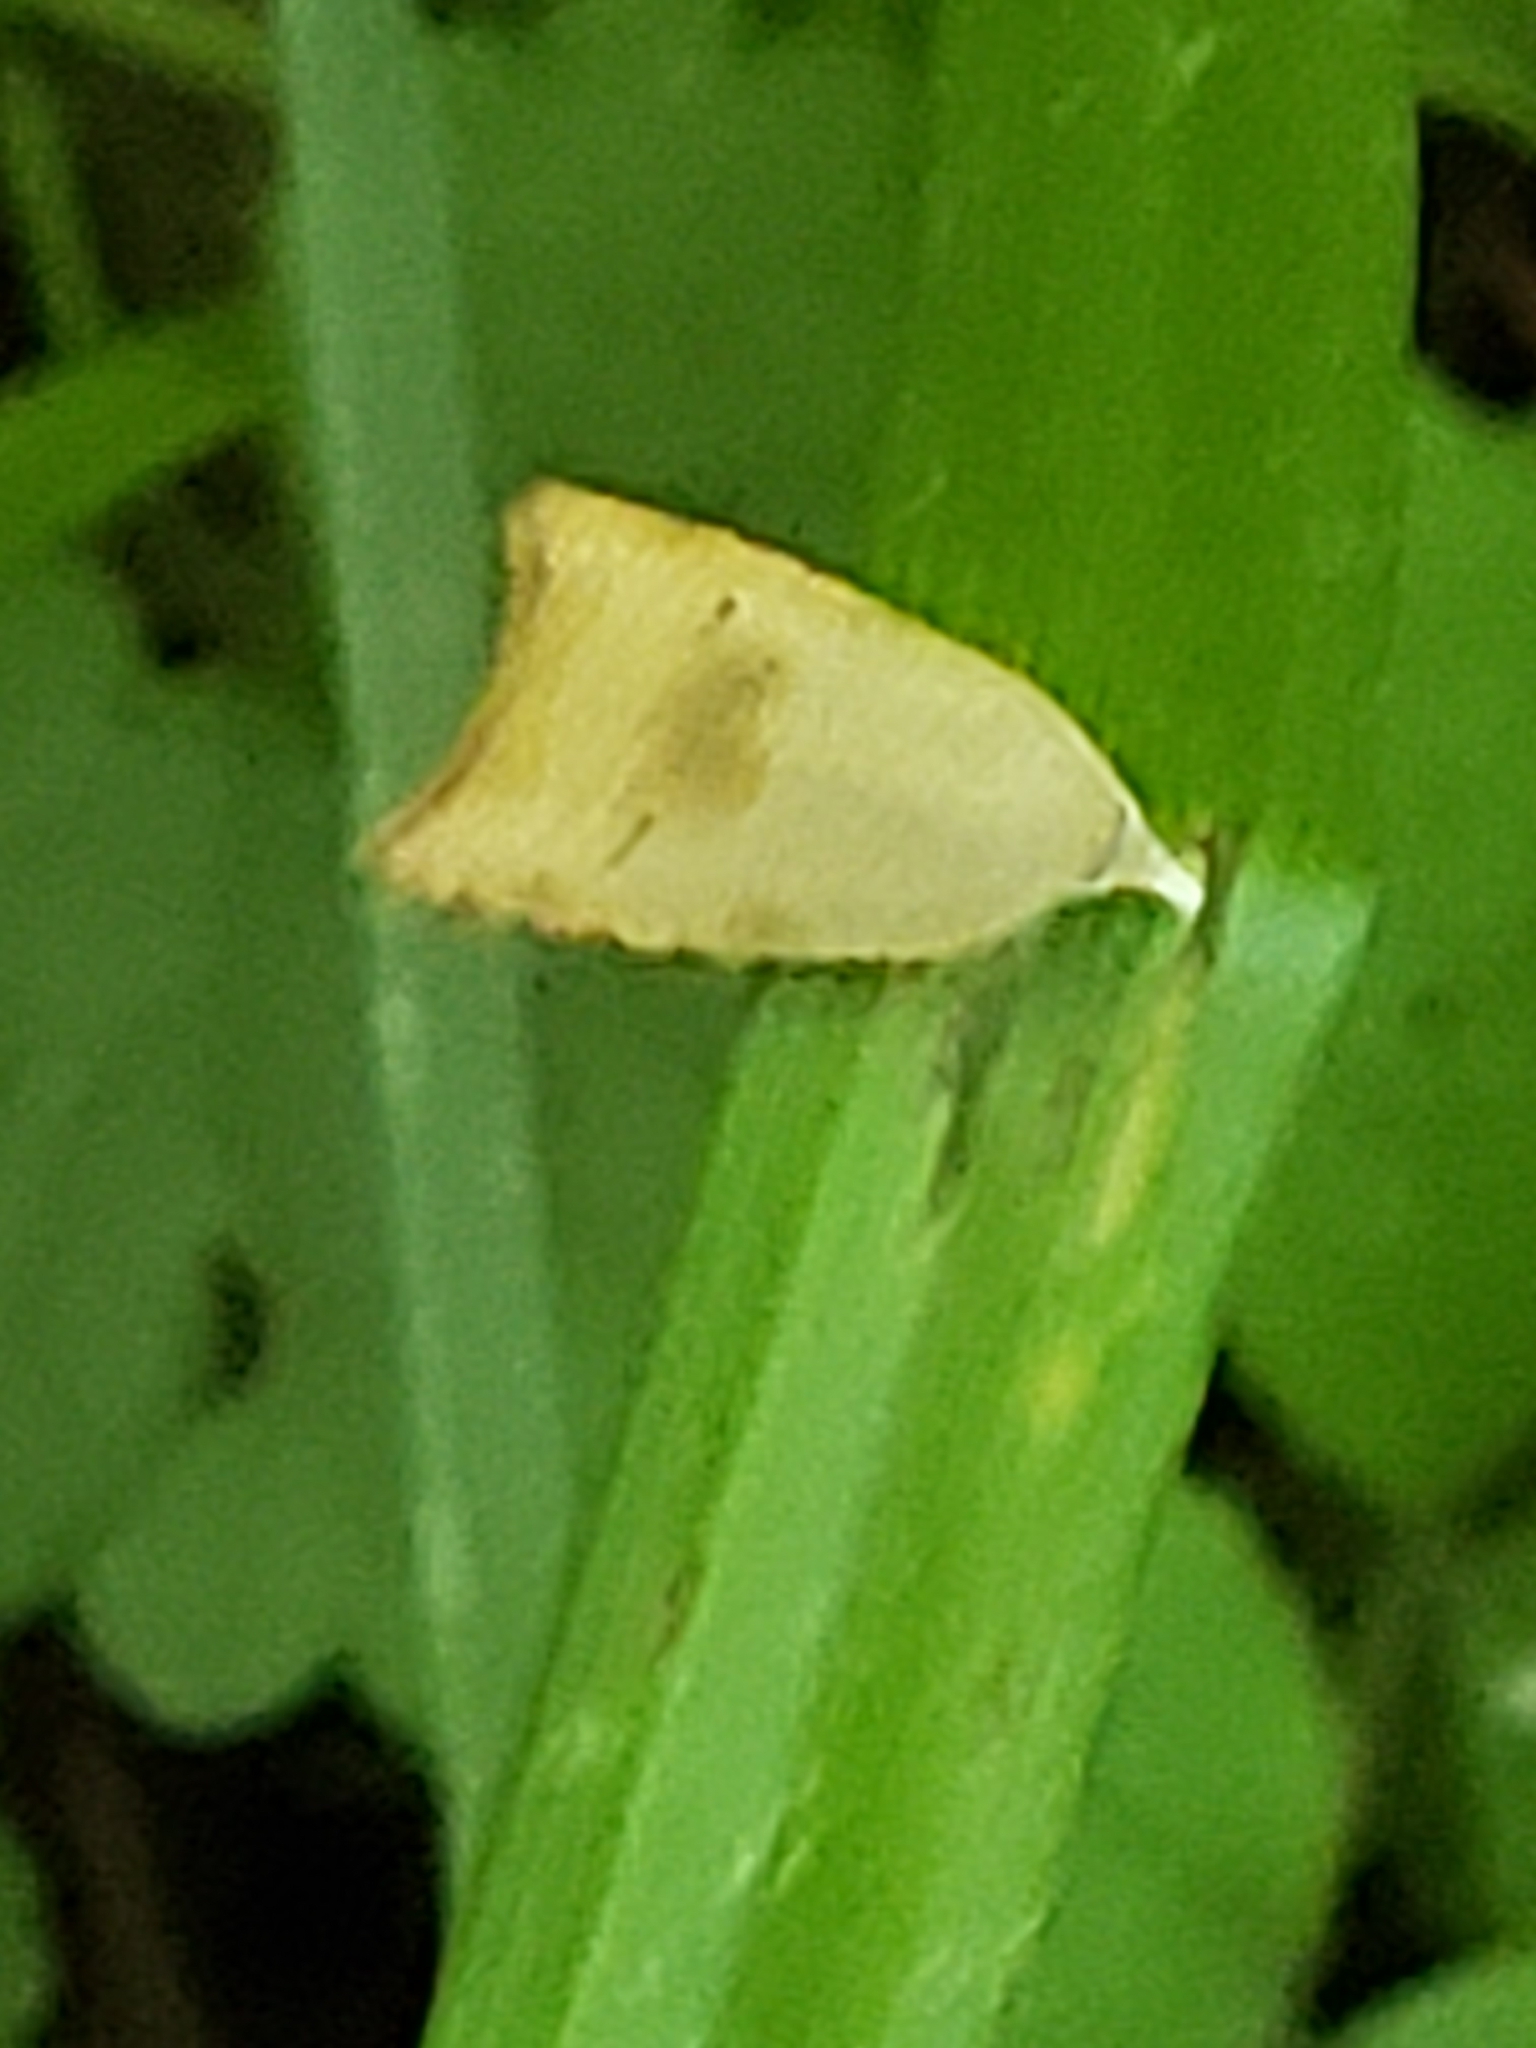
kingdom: Animalia
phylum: Arthropoda
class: Insecta
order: Lepidoptera
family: Tortricidae
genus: Coelostathma
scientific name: Coelostathma discopunctana
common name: Batman moth
